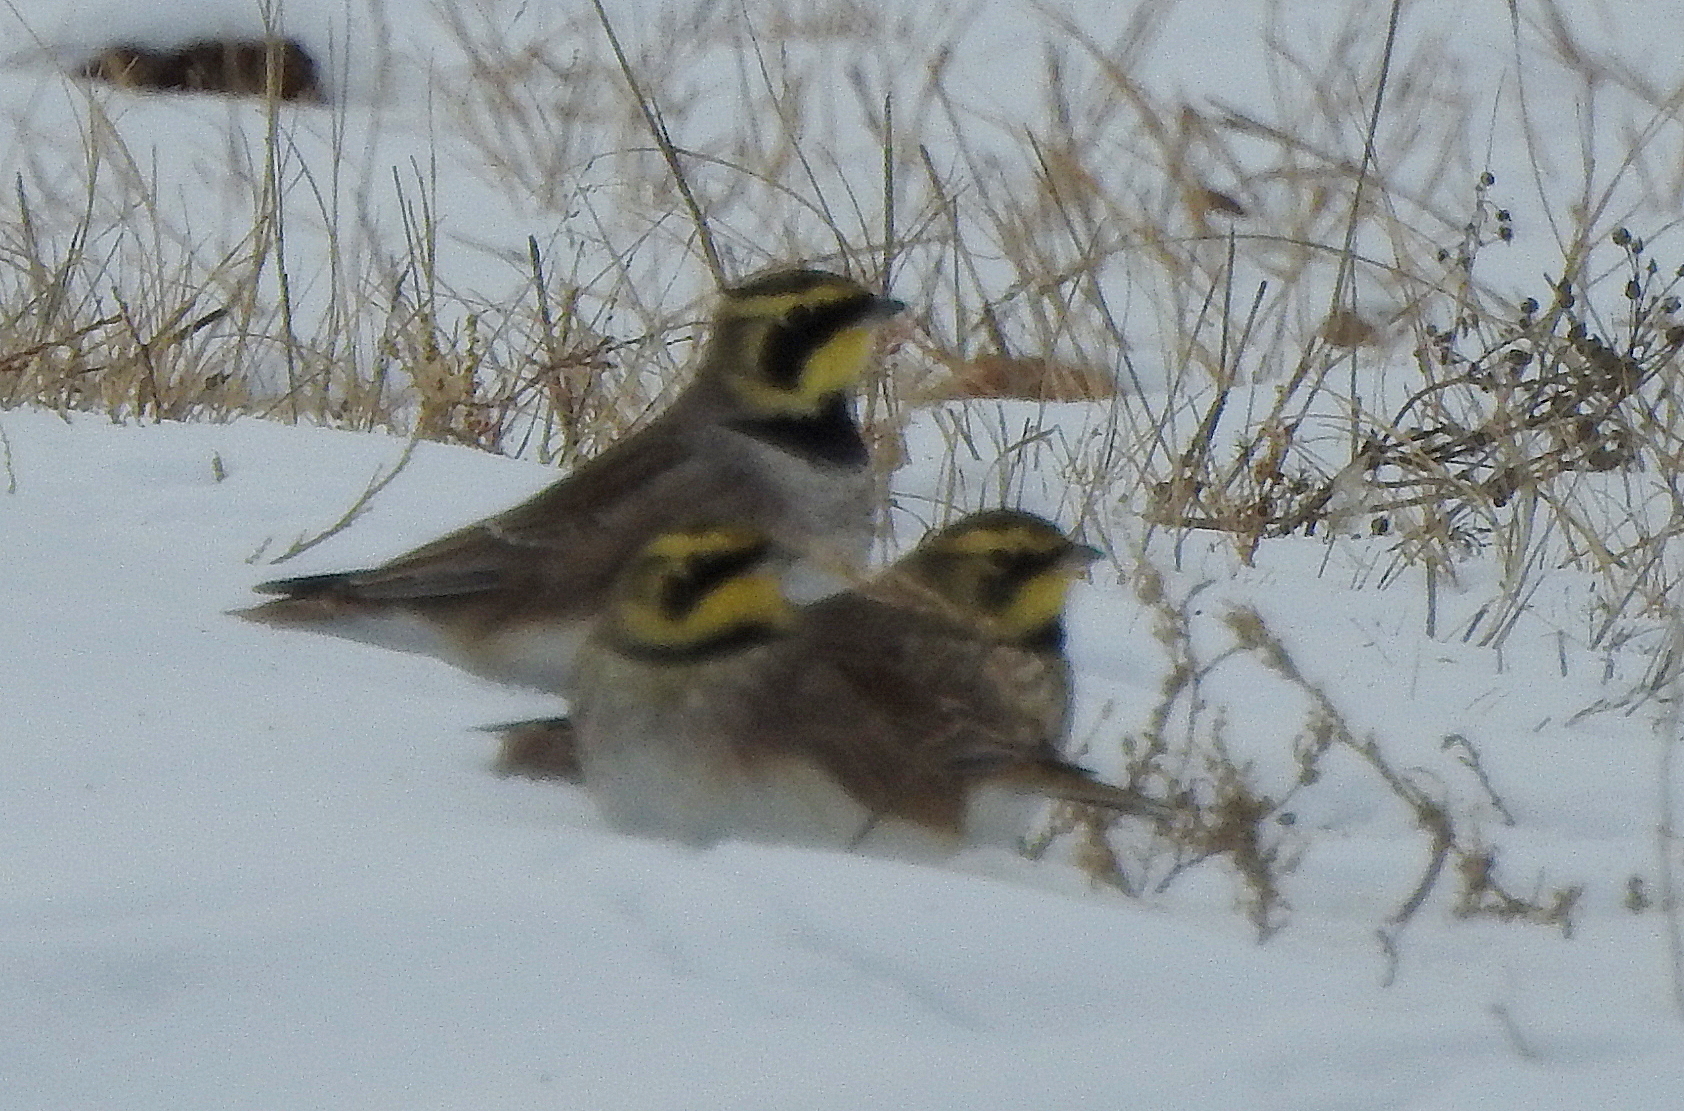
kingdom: Animalia
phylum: Chordata
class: Aves
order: Passeriformes
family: Alaudidae
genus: Eremophila
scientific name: Eremophila alpestris
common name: Horned lark
